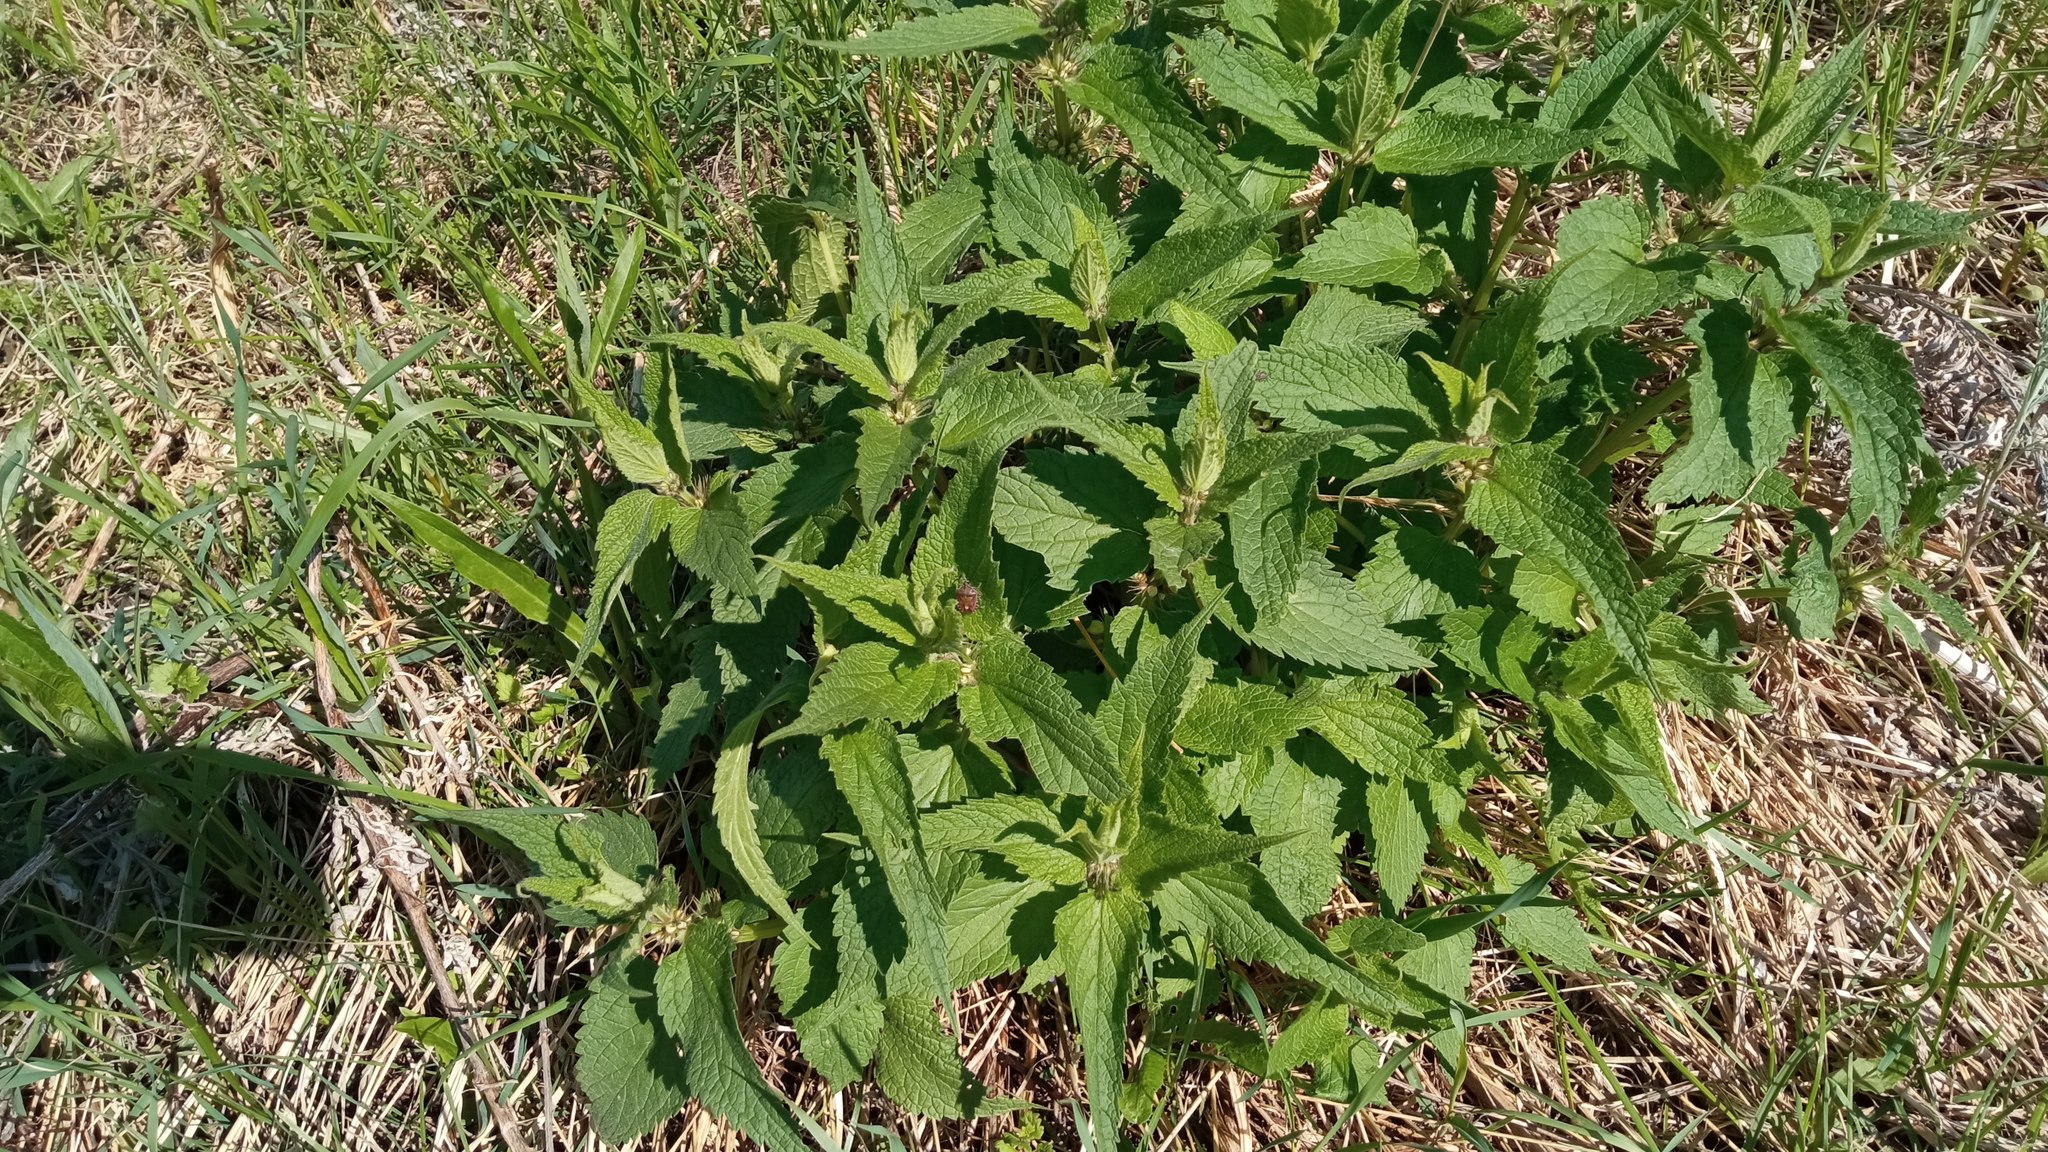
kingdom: Plantae
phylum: Tracheophyta
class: Magnoliopsida
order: Lamiales
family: Lamiaceae
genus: Lamium
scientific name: Lamium album
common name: White dead-nettle
